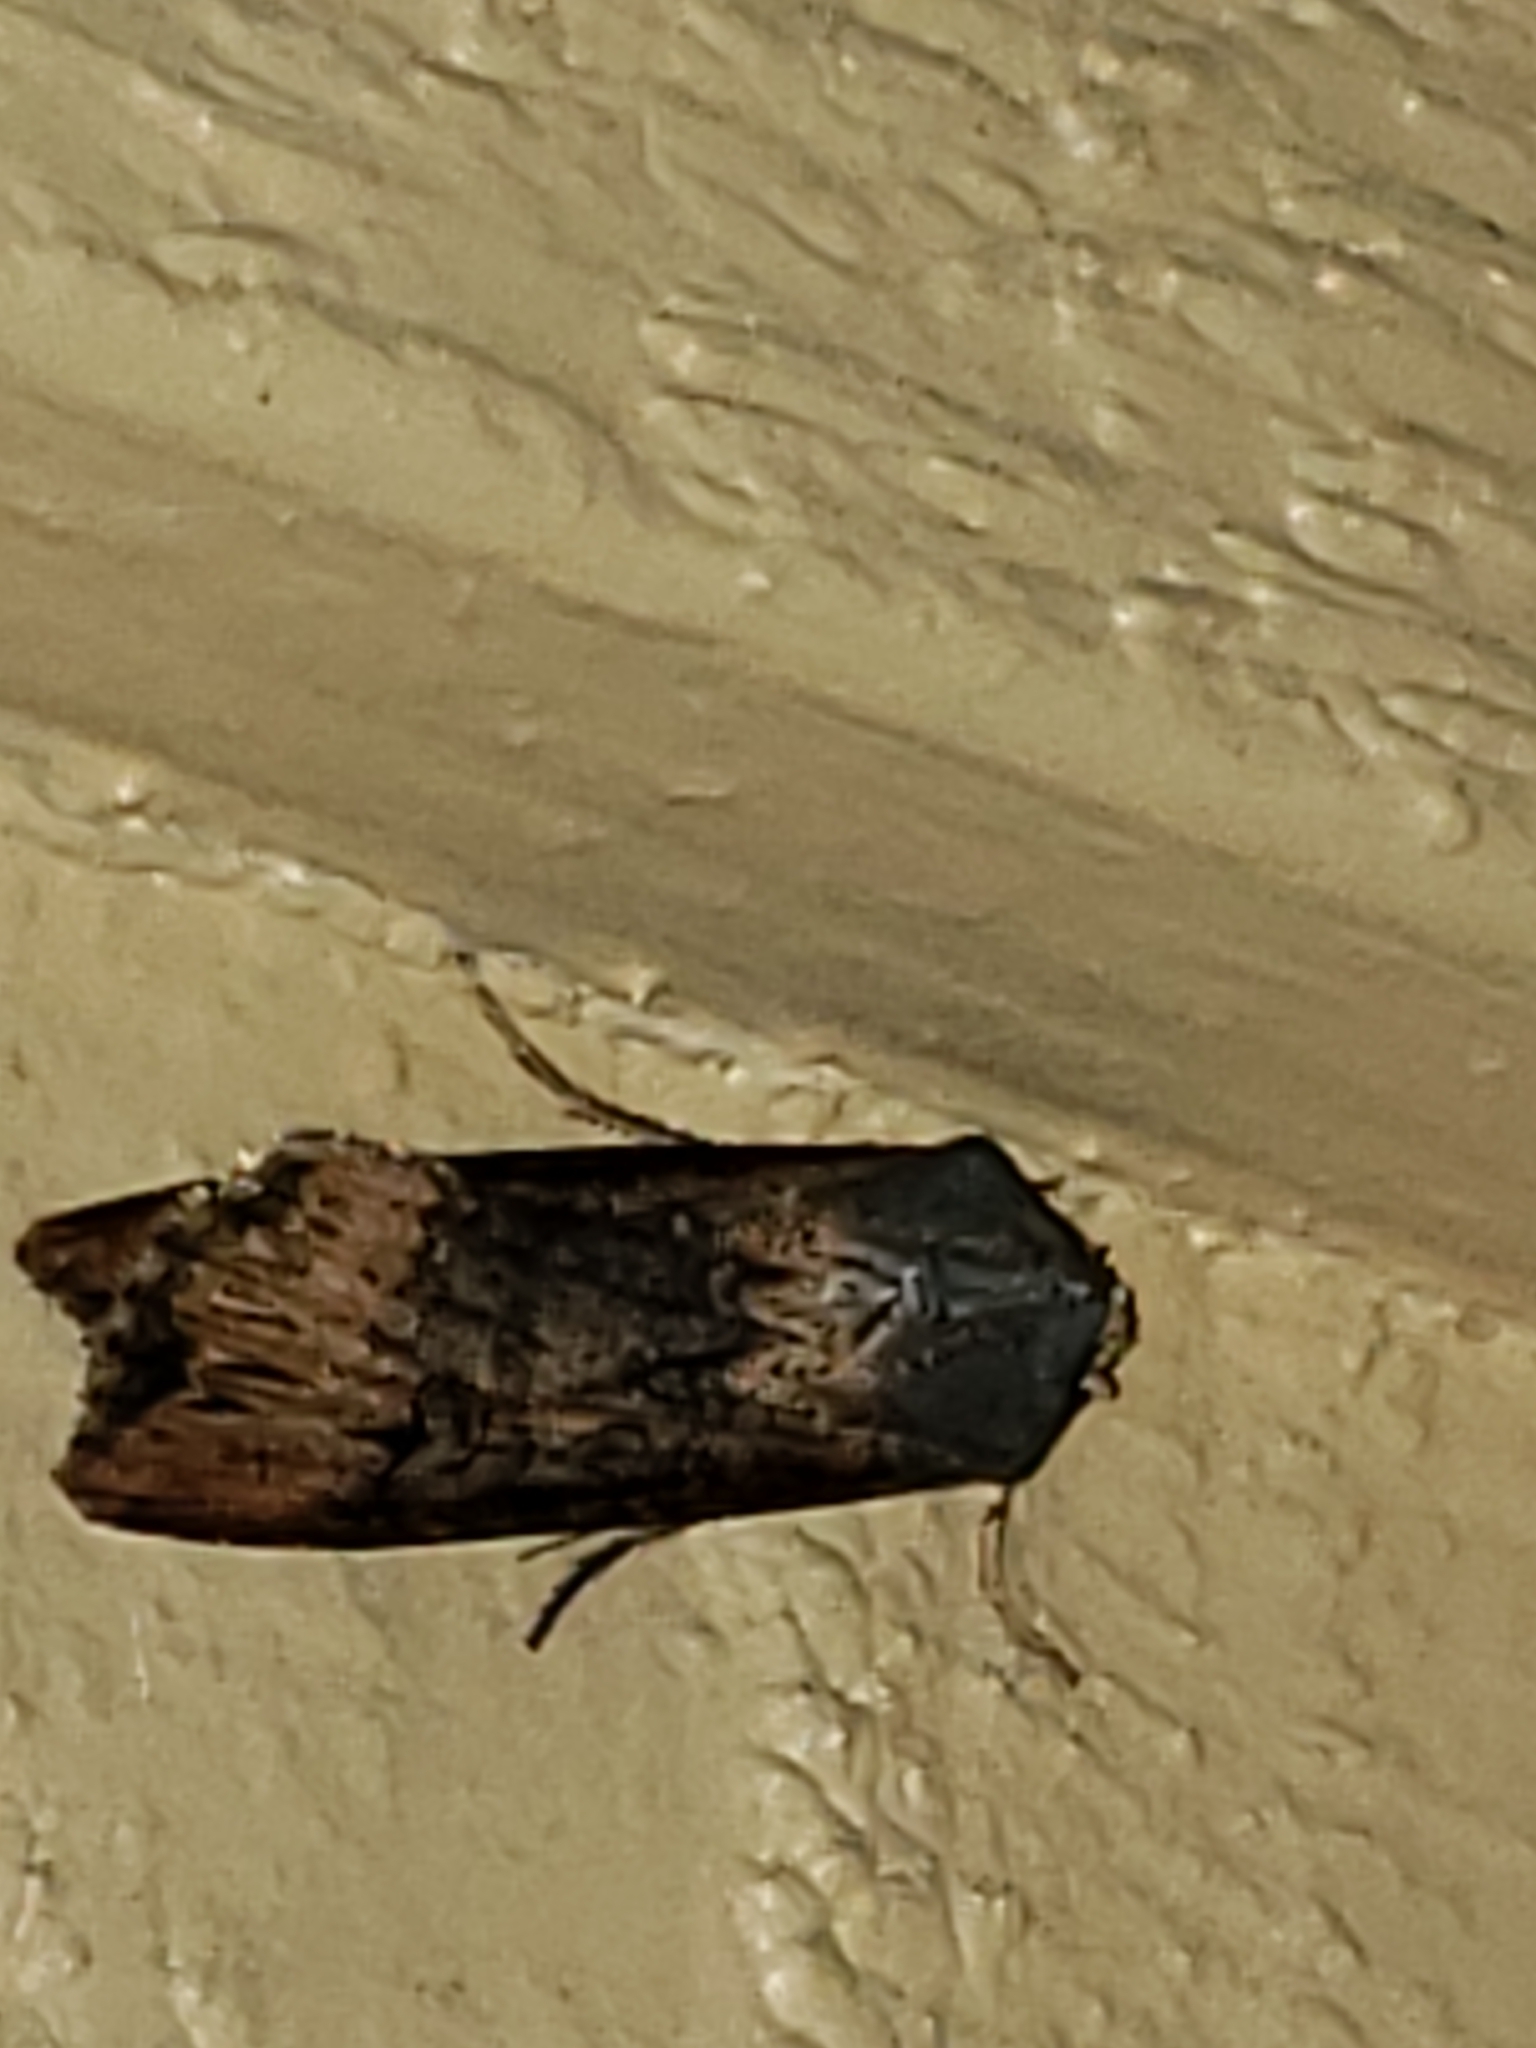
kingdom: Animalia
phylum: Arthropoda
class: Insecta
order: Lepidoptera
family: Noctuidae
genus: Agrotis
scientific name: Agrotis ipsilon
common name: Dark sword-grass
